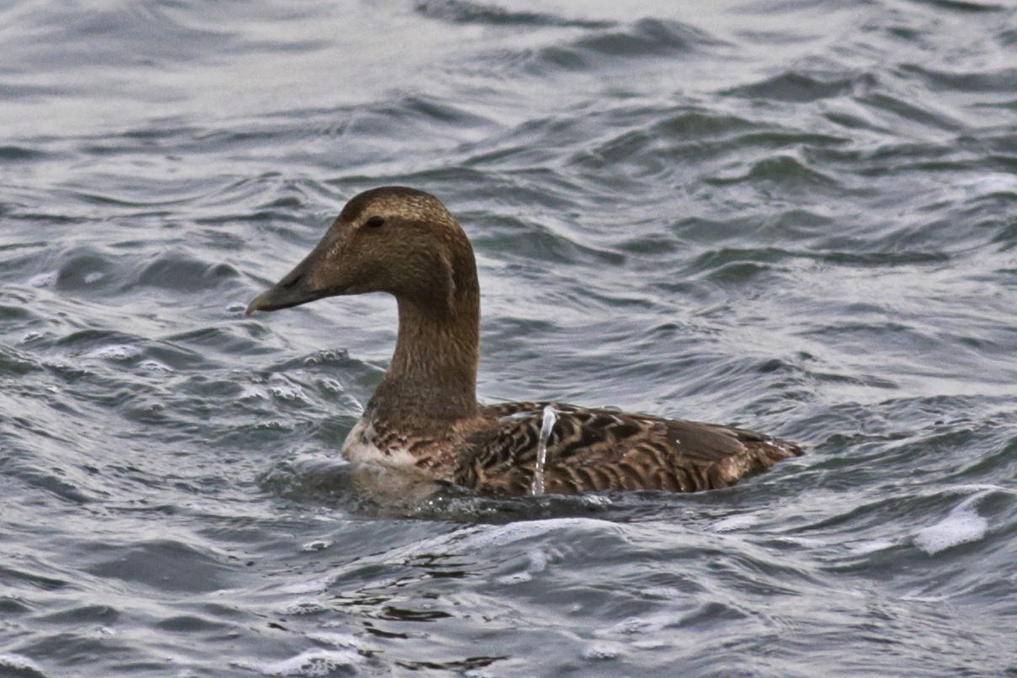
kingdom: Animalia
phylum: Chordata
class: Aves
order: Anseriformes
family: Anatidae
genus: Somateria
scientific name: Somateria mollissima
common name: Common eider
